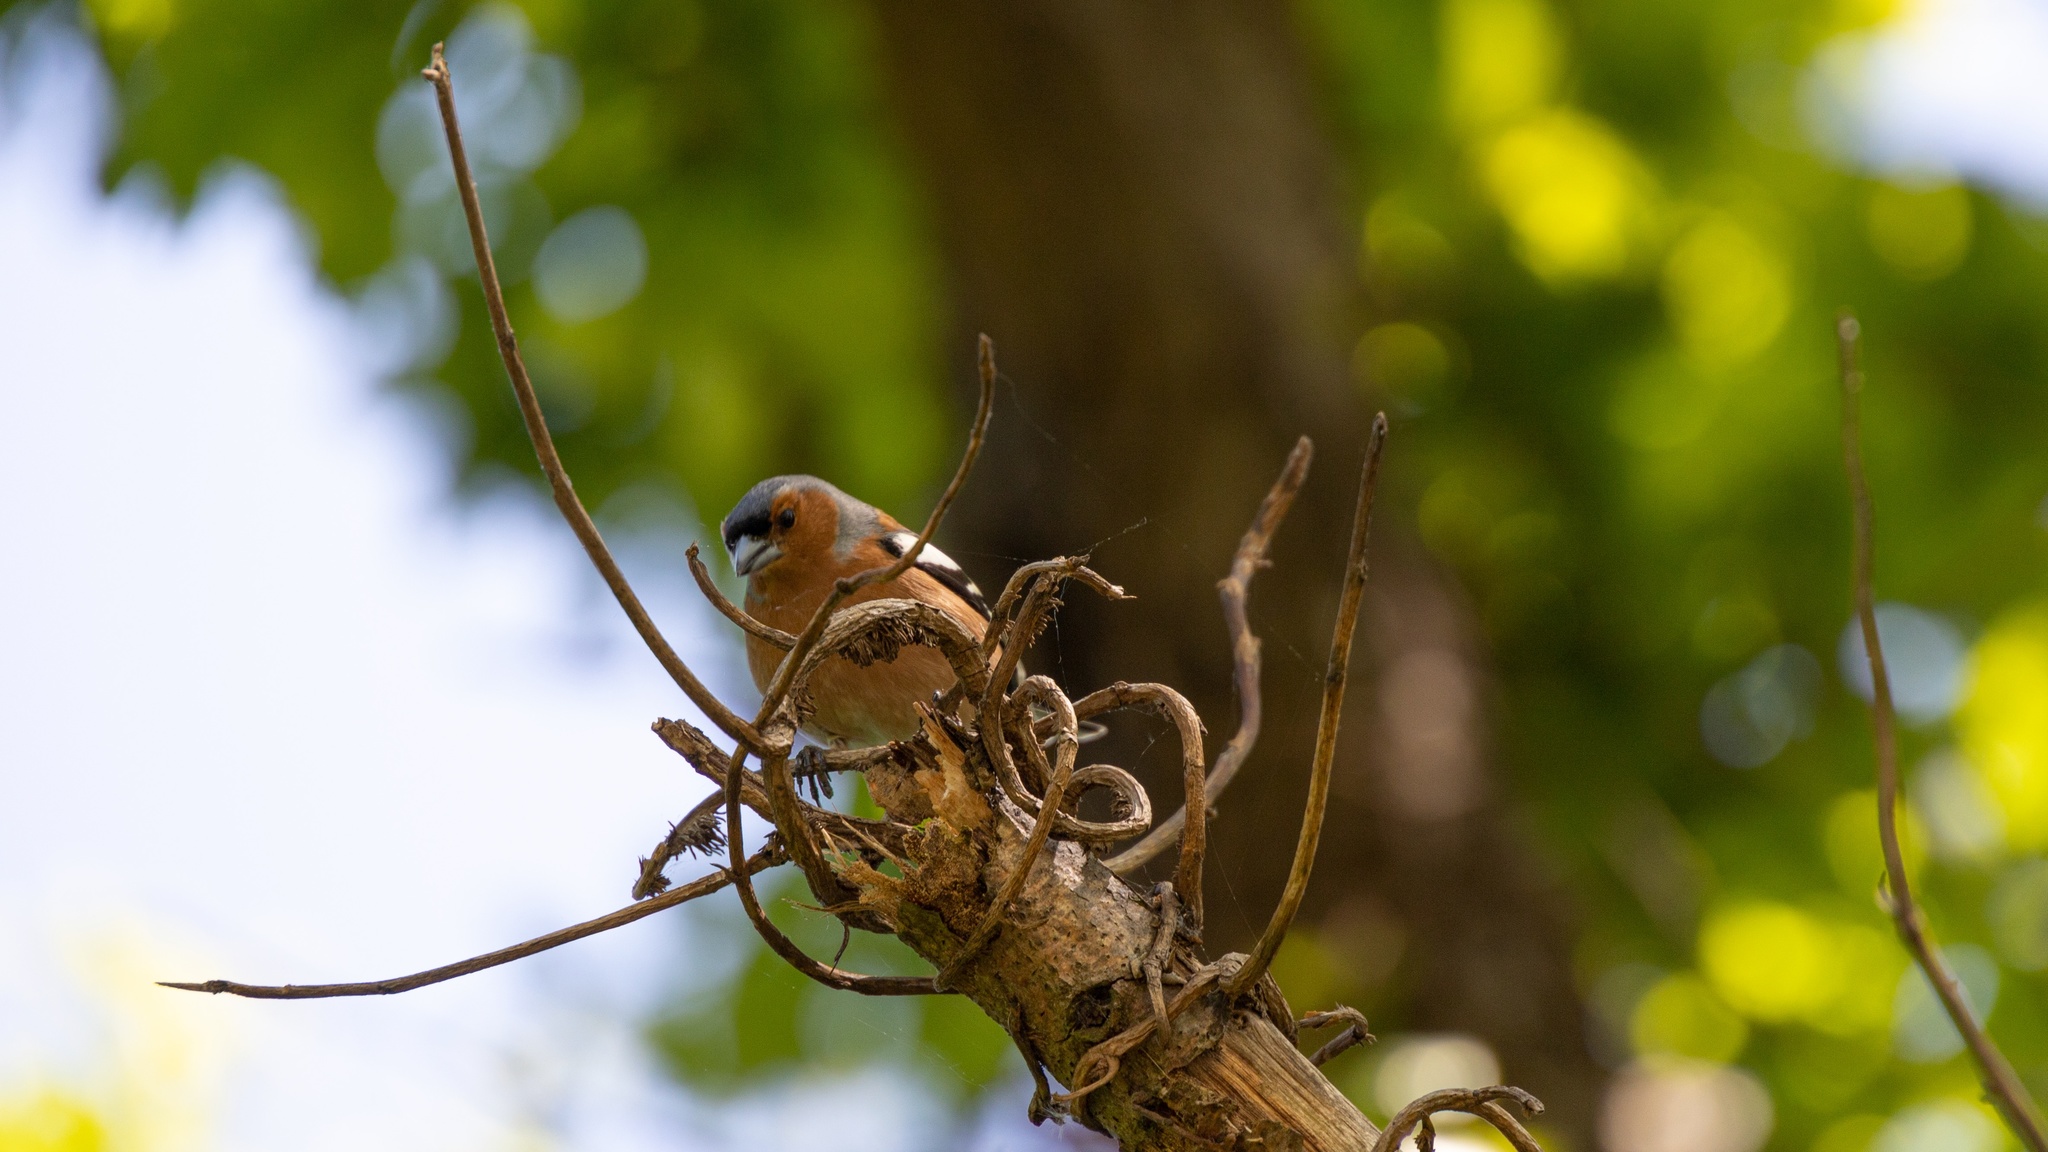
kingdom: Animalia
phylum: Chordata
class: Aves
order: Passeriformes
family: Fringillidae
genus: Fringilla
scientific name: Fringilla coelebs
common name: Common chaffinch
